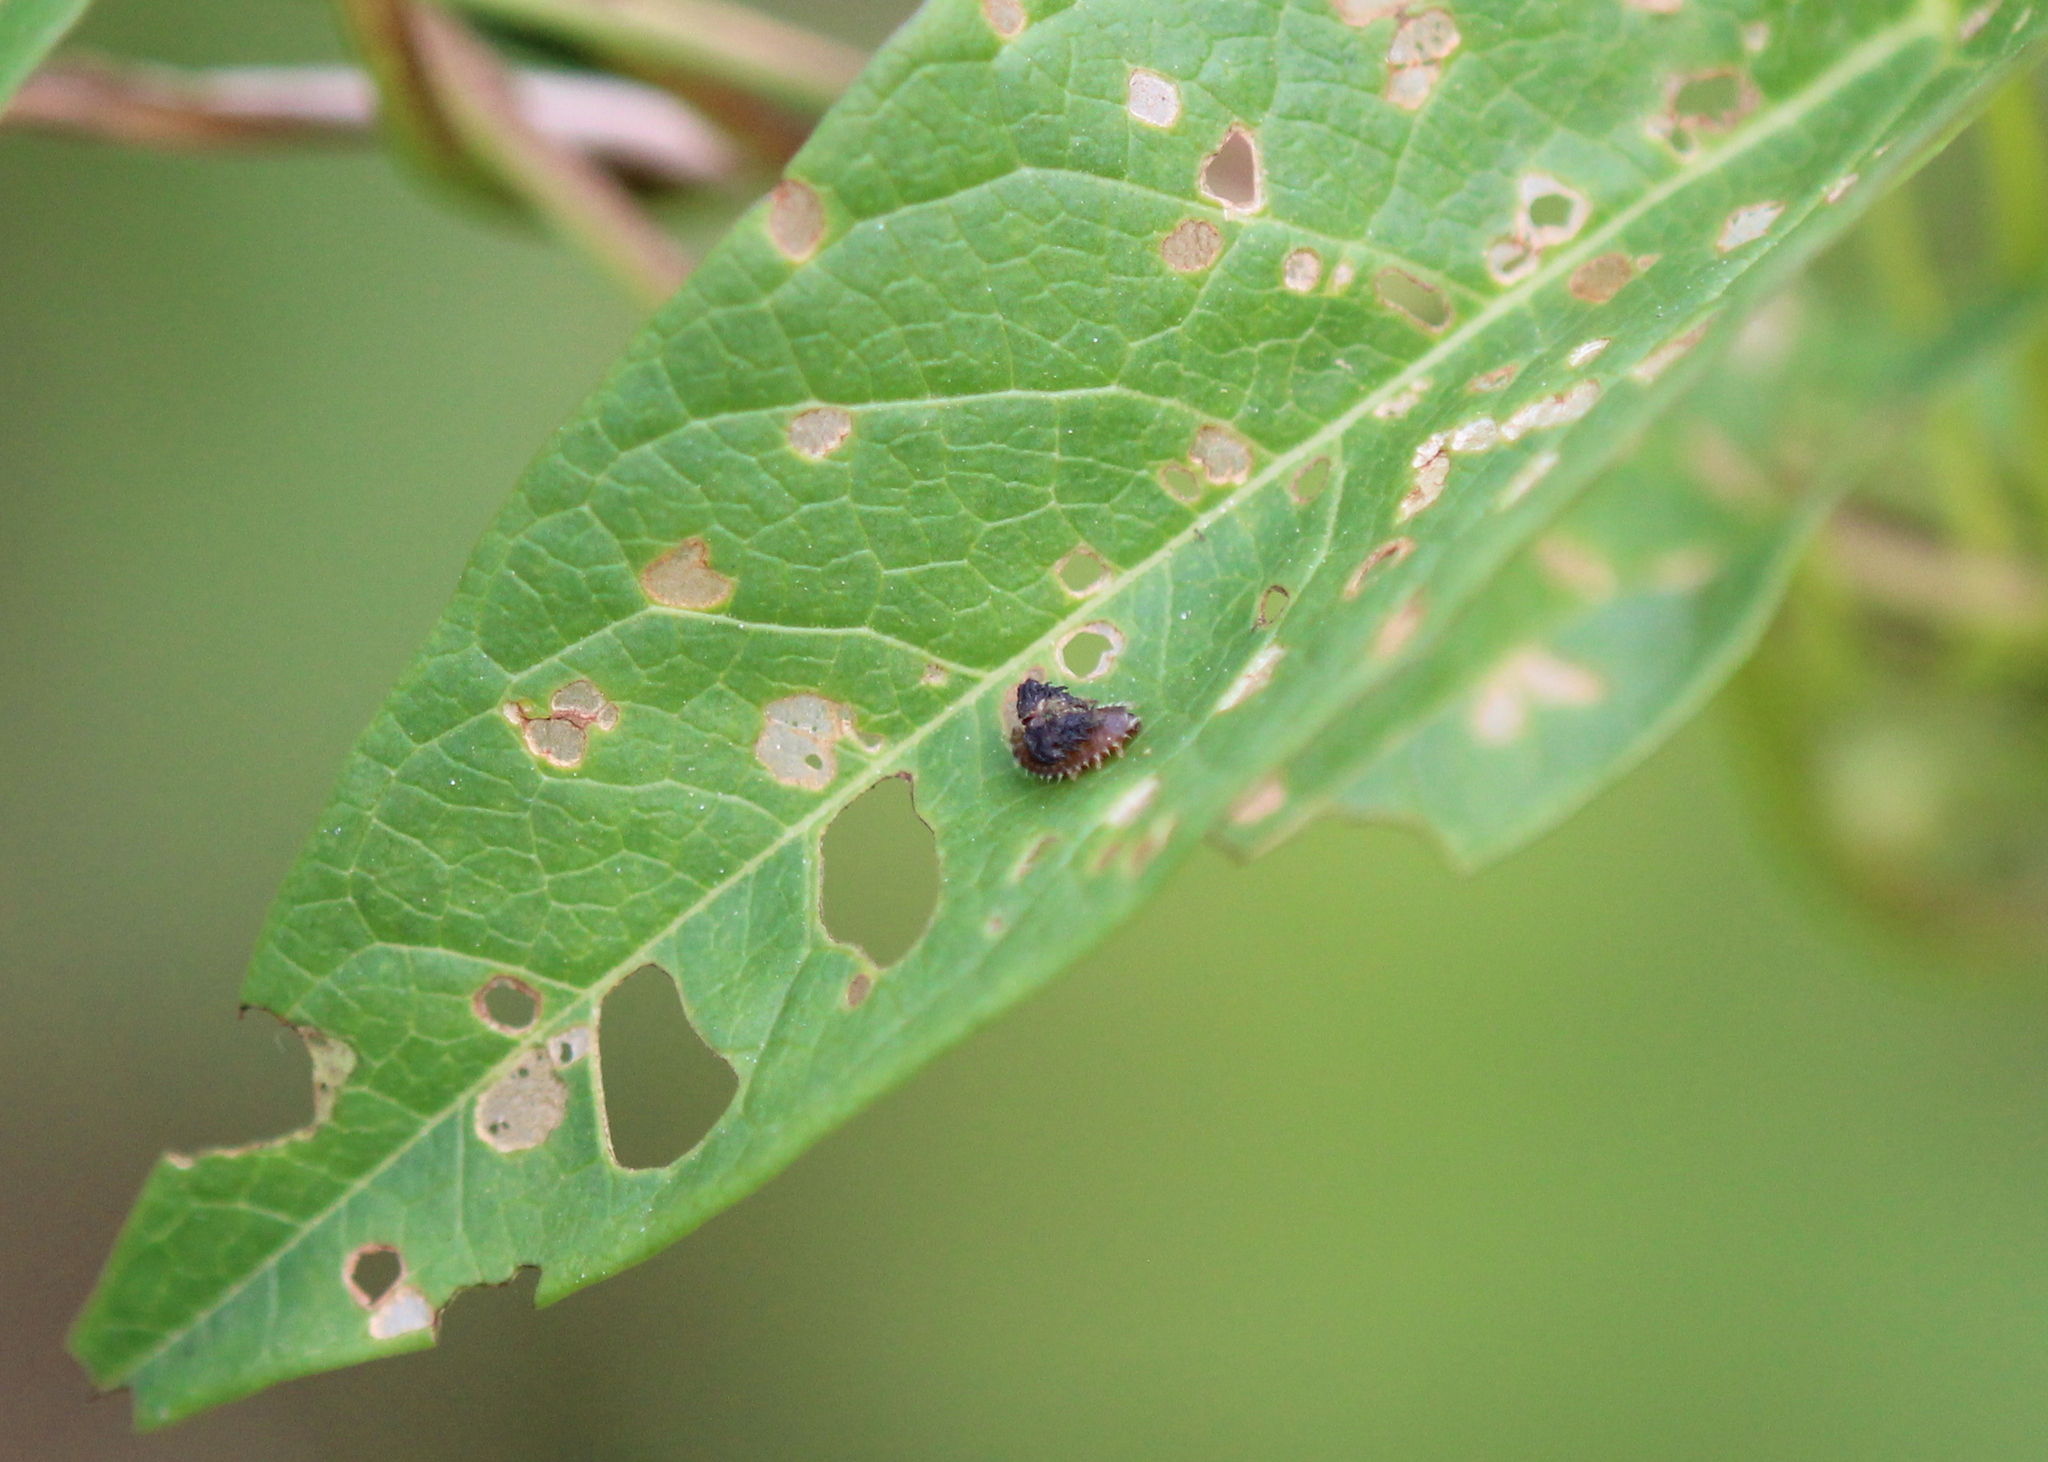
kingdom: Animalia
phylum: Arthropoda
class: Insecta
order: Coleoptera
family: Chrysomelidae
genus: Charidotella
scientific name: Charidotella sexpunctata
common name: Golden tortoise beetle
